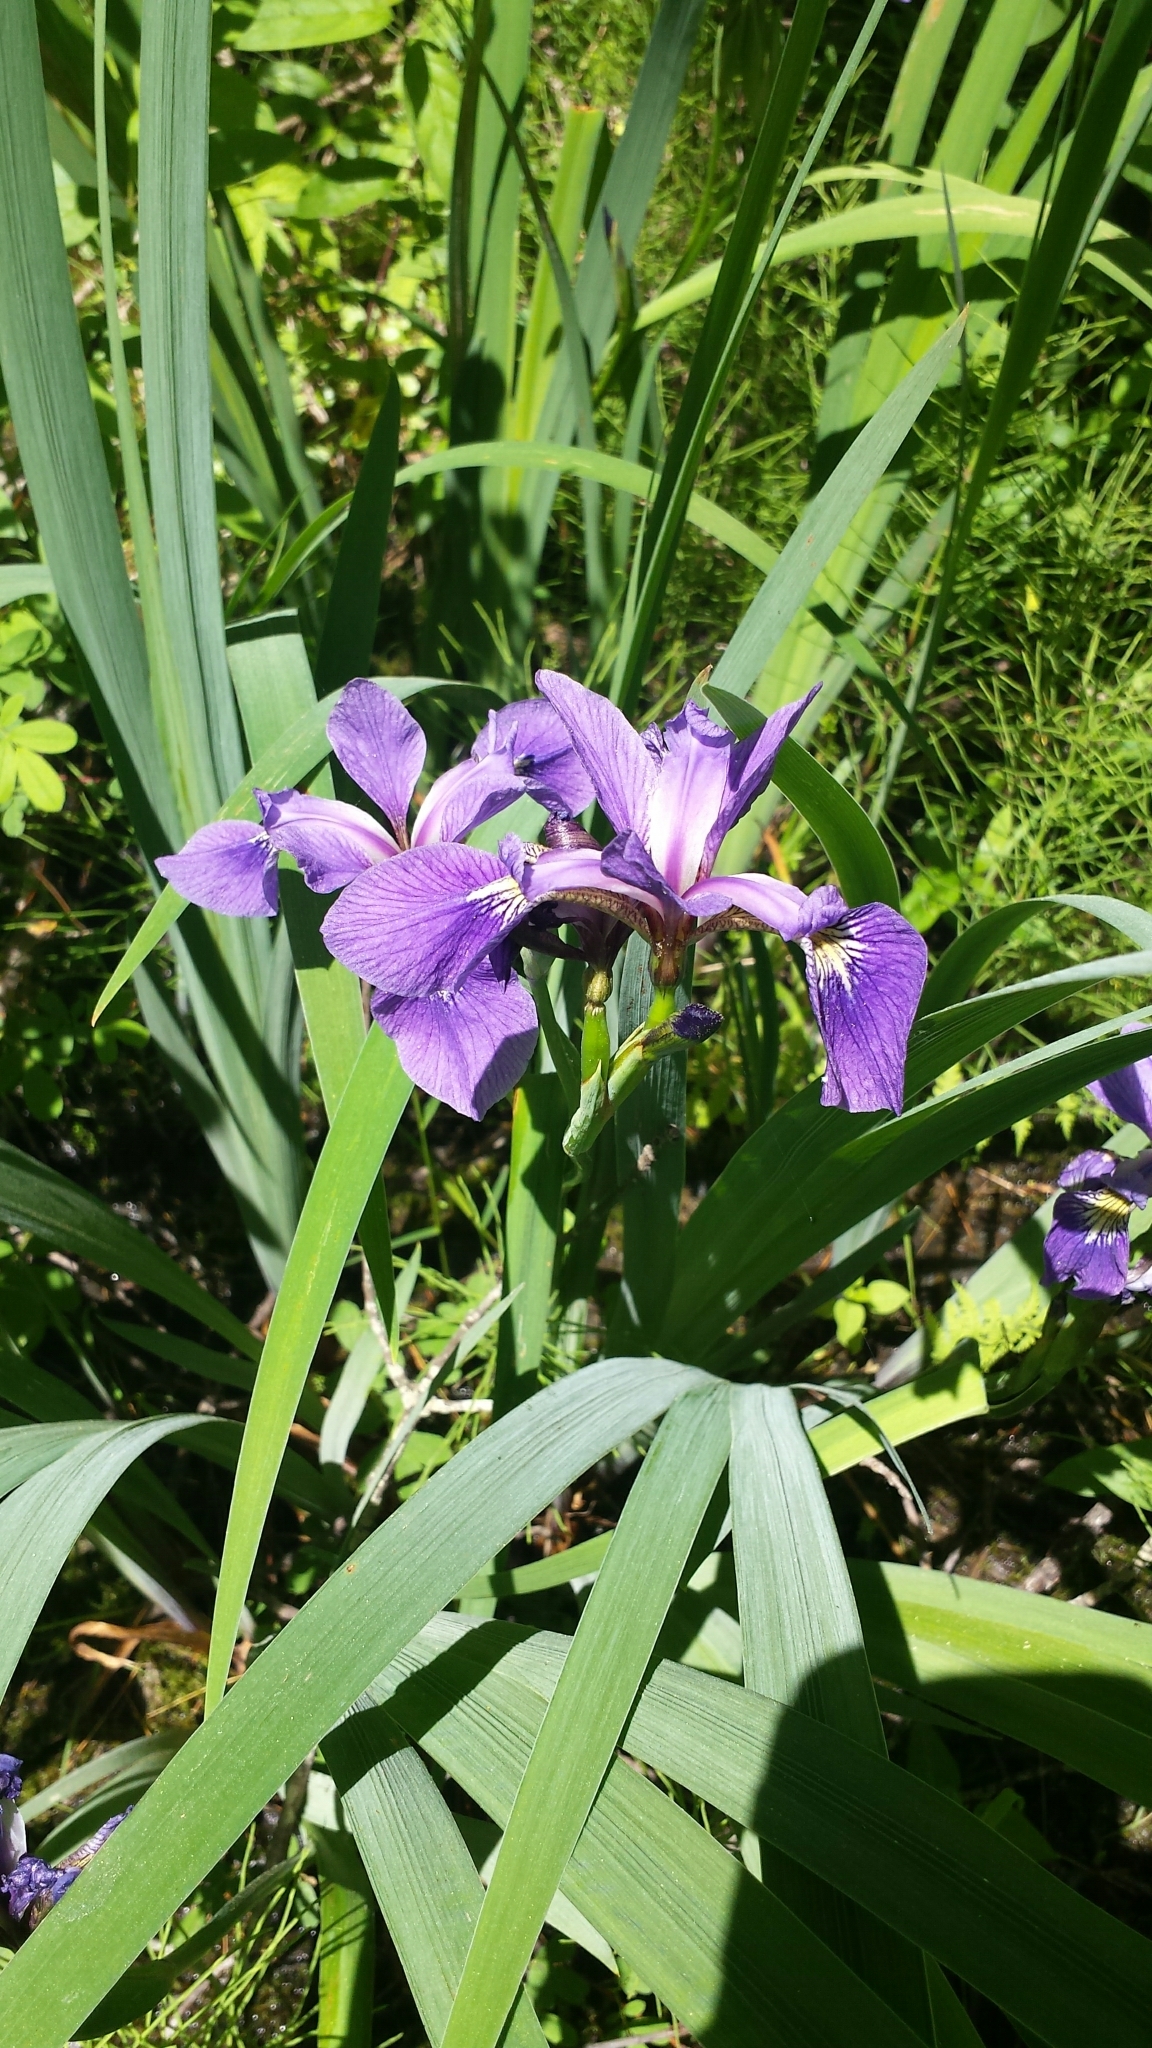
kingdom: Plantae
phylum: Tracheophyta
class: Liliopsida
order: Asparagales
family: Iridaceae
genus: Iris
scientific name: Iris versicolor
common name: Purple iris
